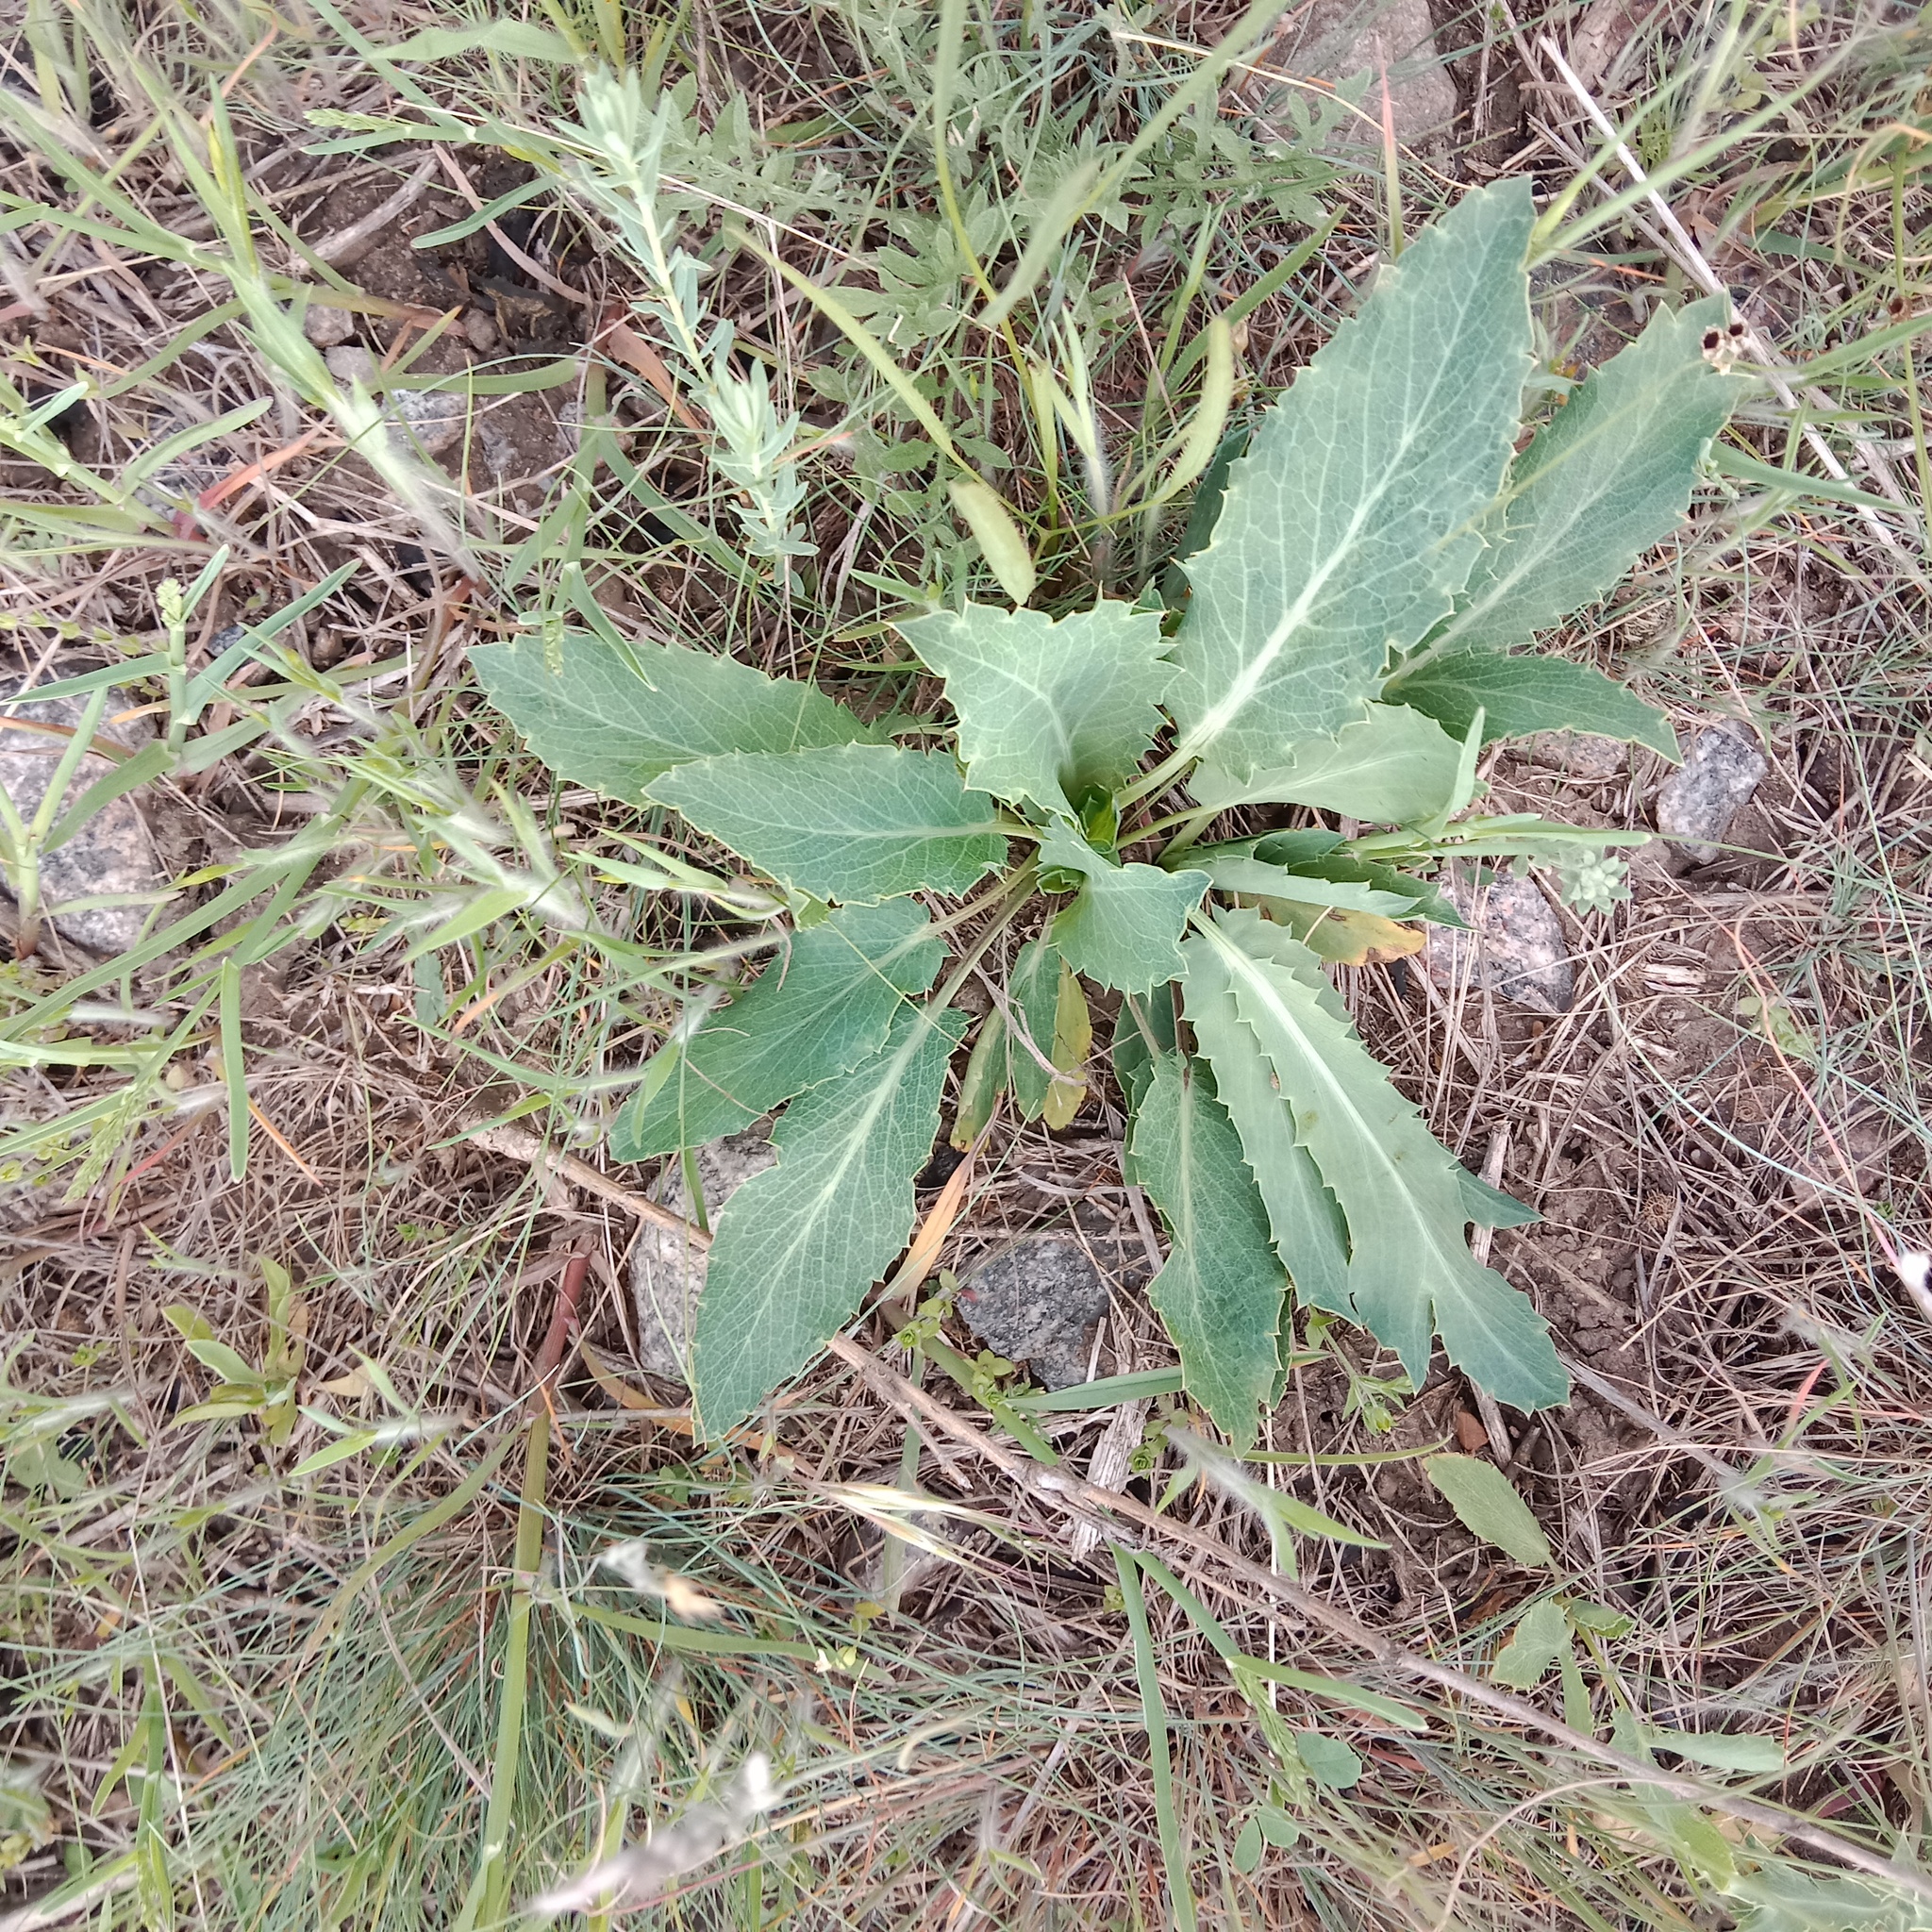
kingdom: Plantae
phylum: Tracheophyta
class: Magnoliopsida
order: Apiales
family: Apiaceae
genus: Eryngium
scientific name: Eryngium campestre
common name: Field eryngo
